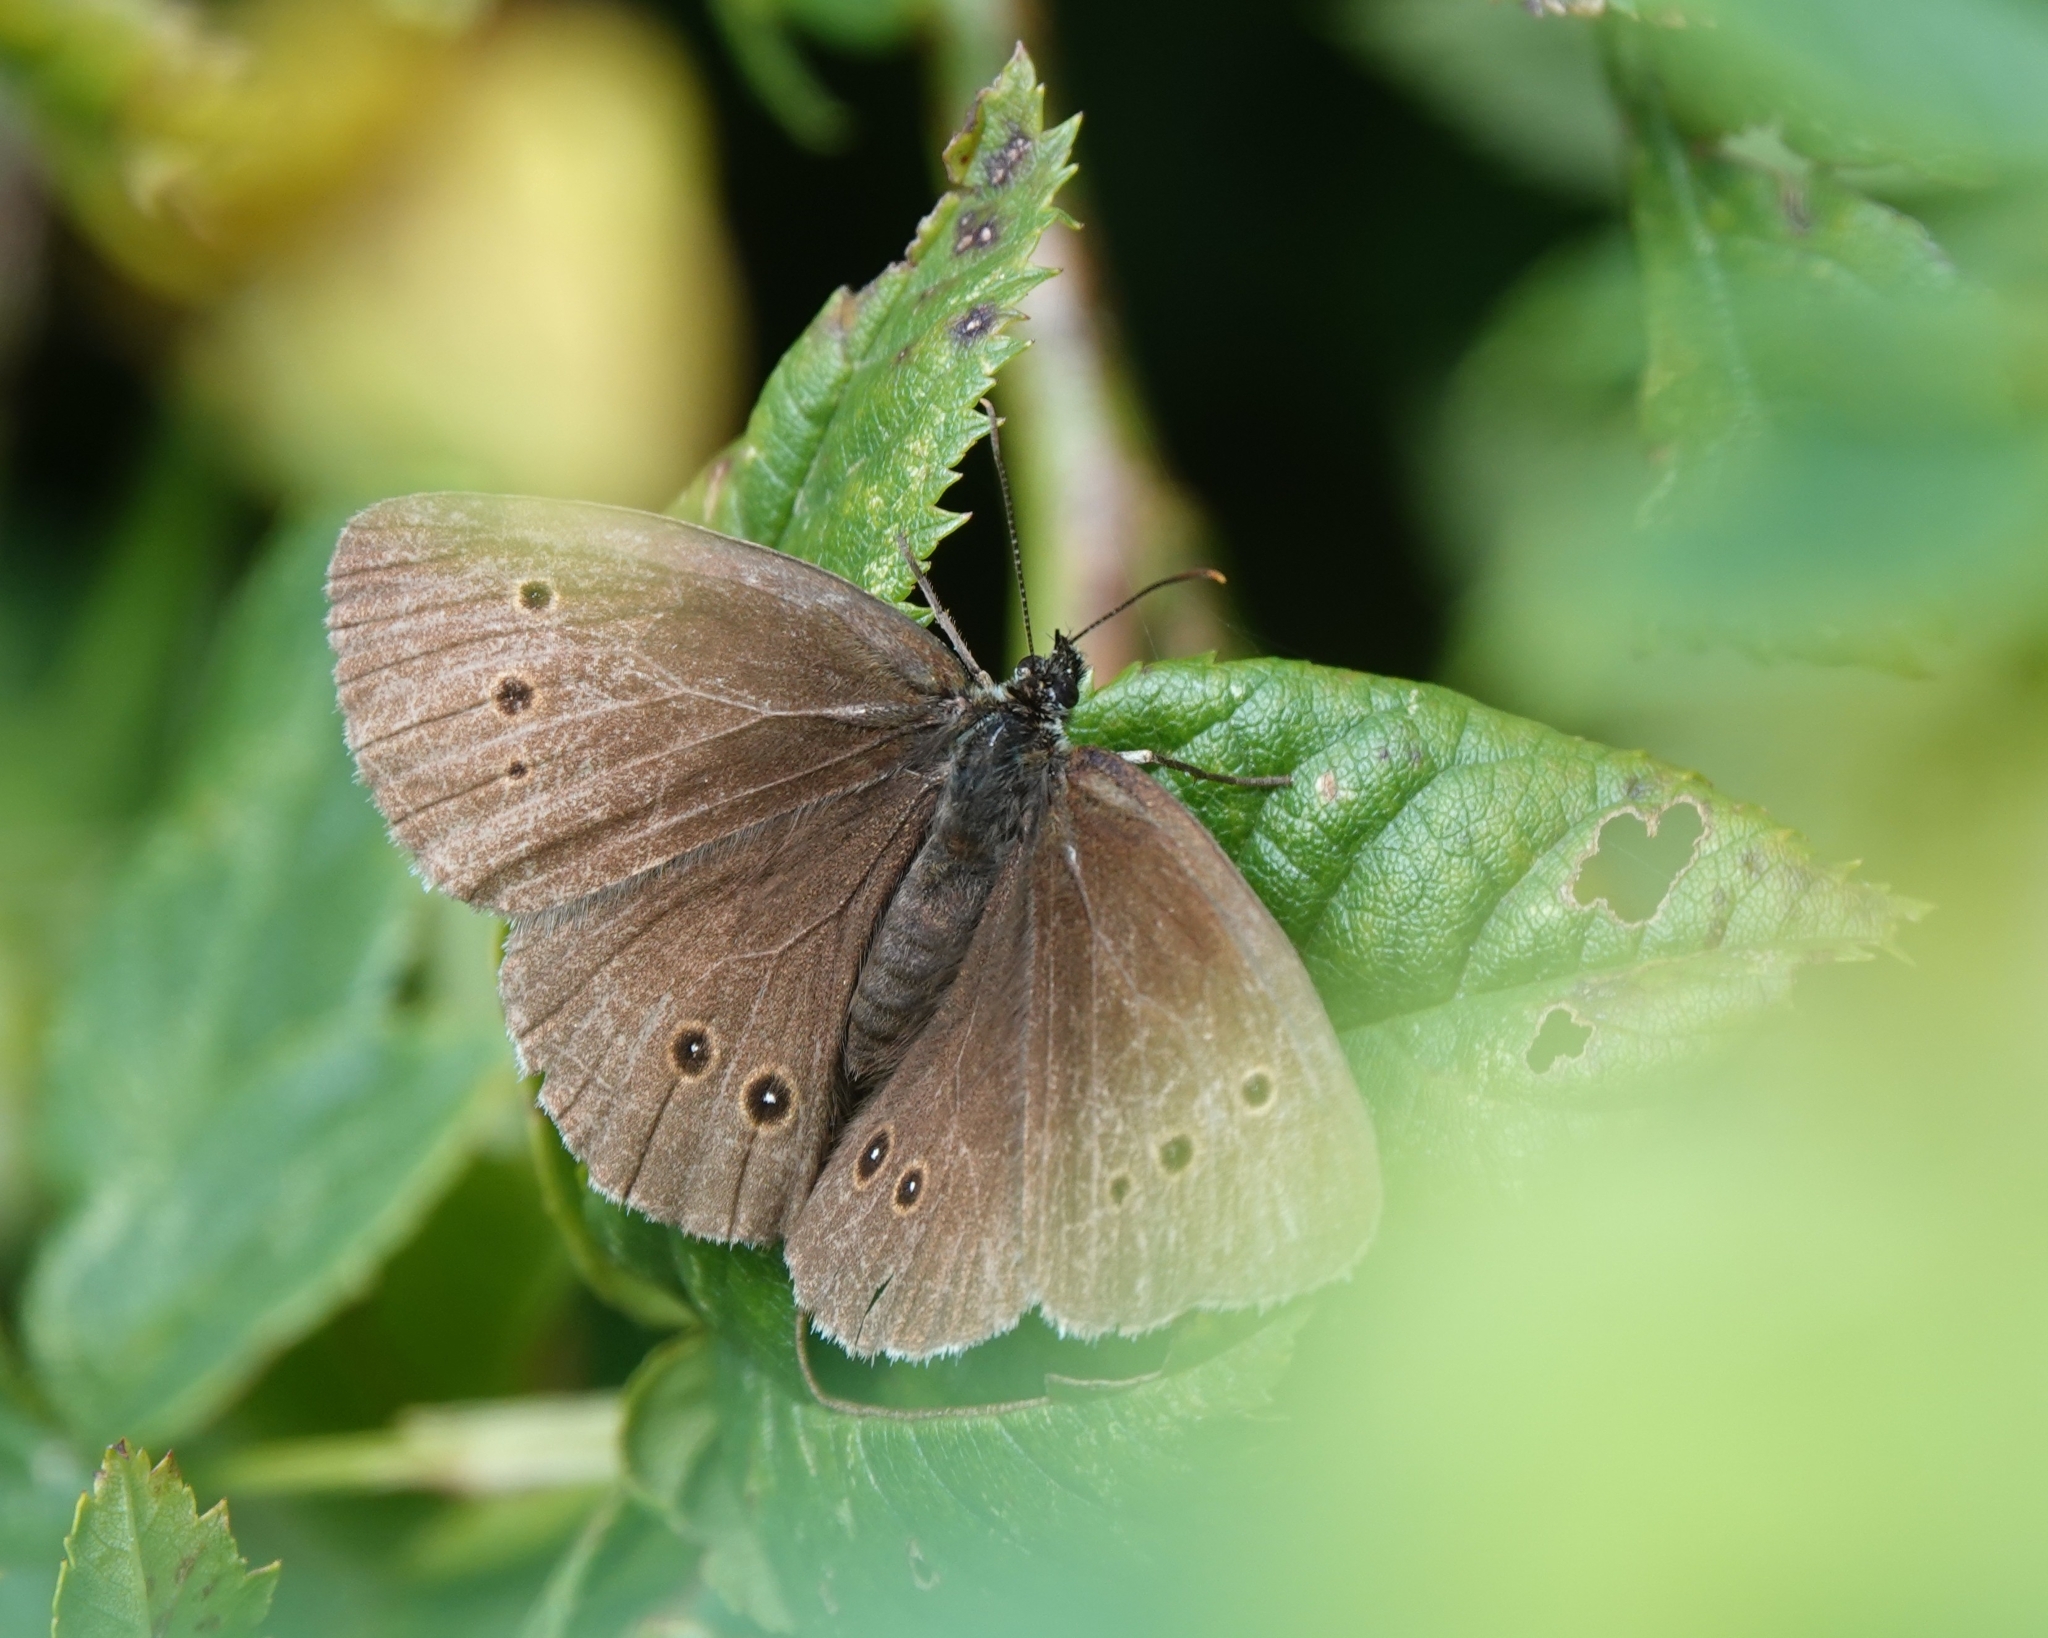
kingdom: Animalia
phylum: Arthropoda
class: Insecta
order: Lepidoptera
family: Nymphalidae
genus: Aphantopus
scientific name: Aphantopus hyperantus
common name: Ringlet
